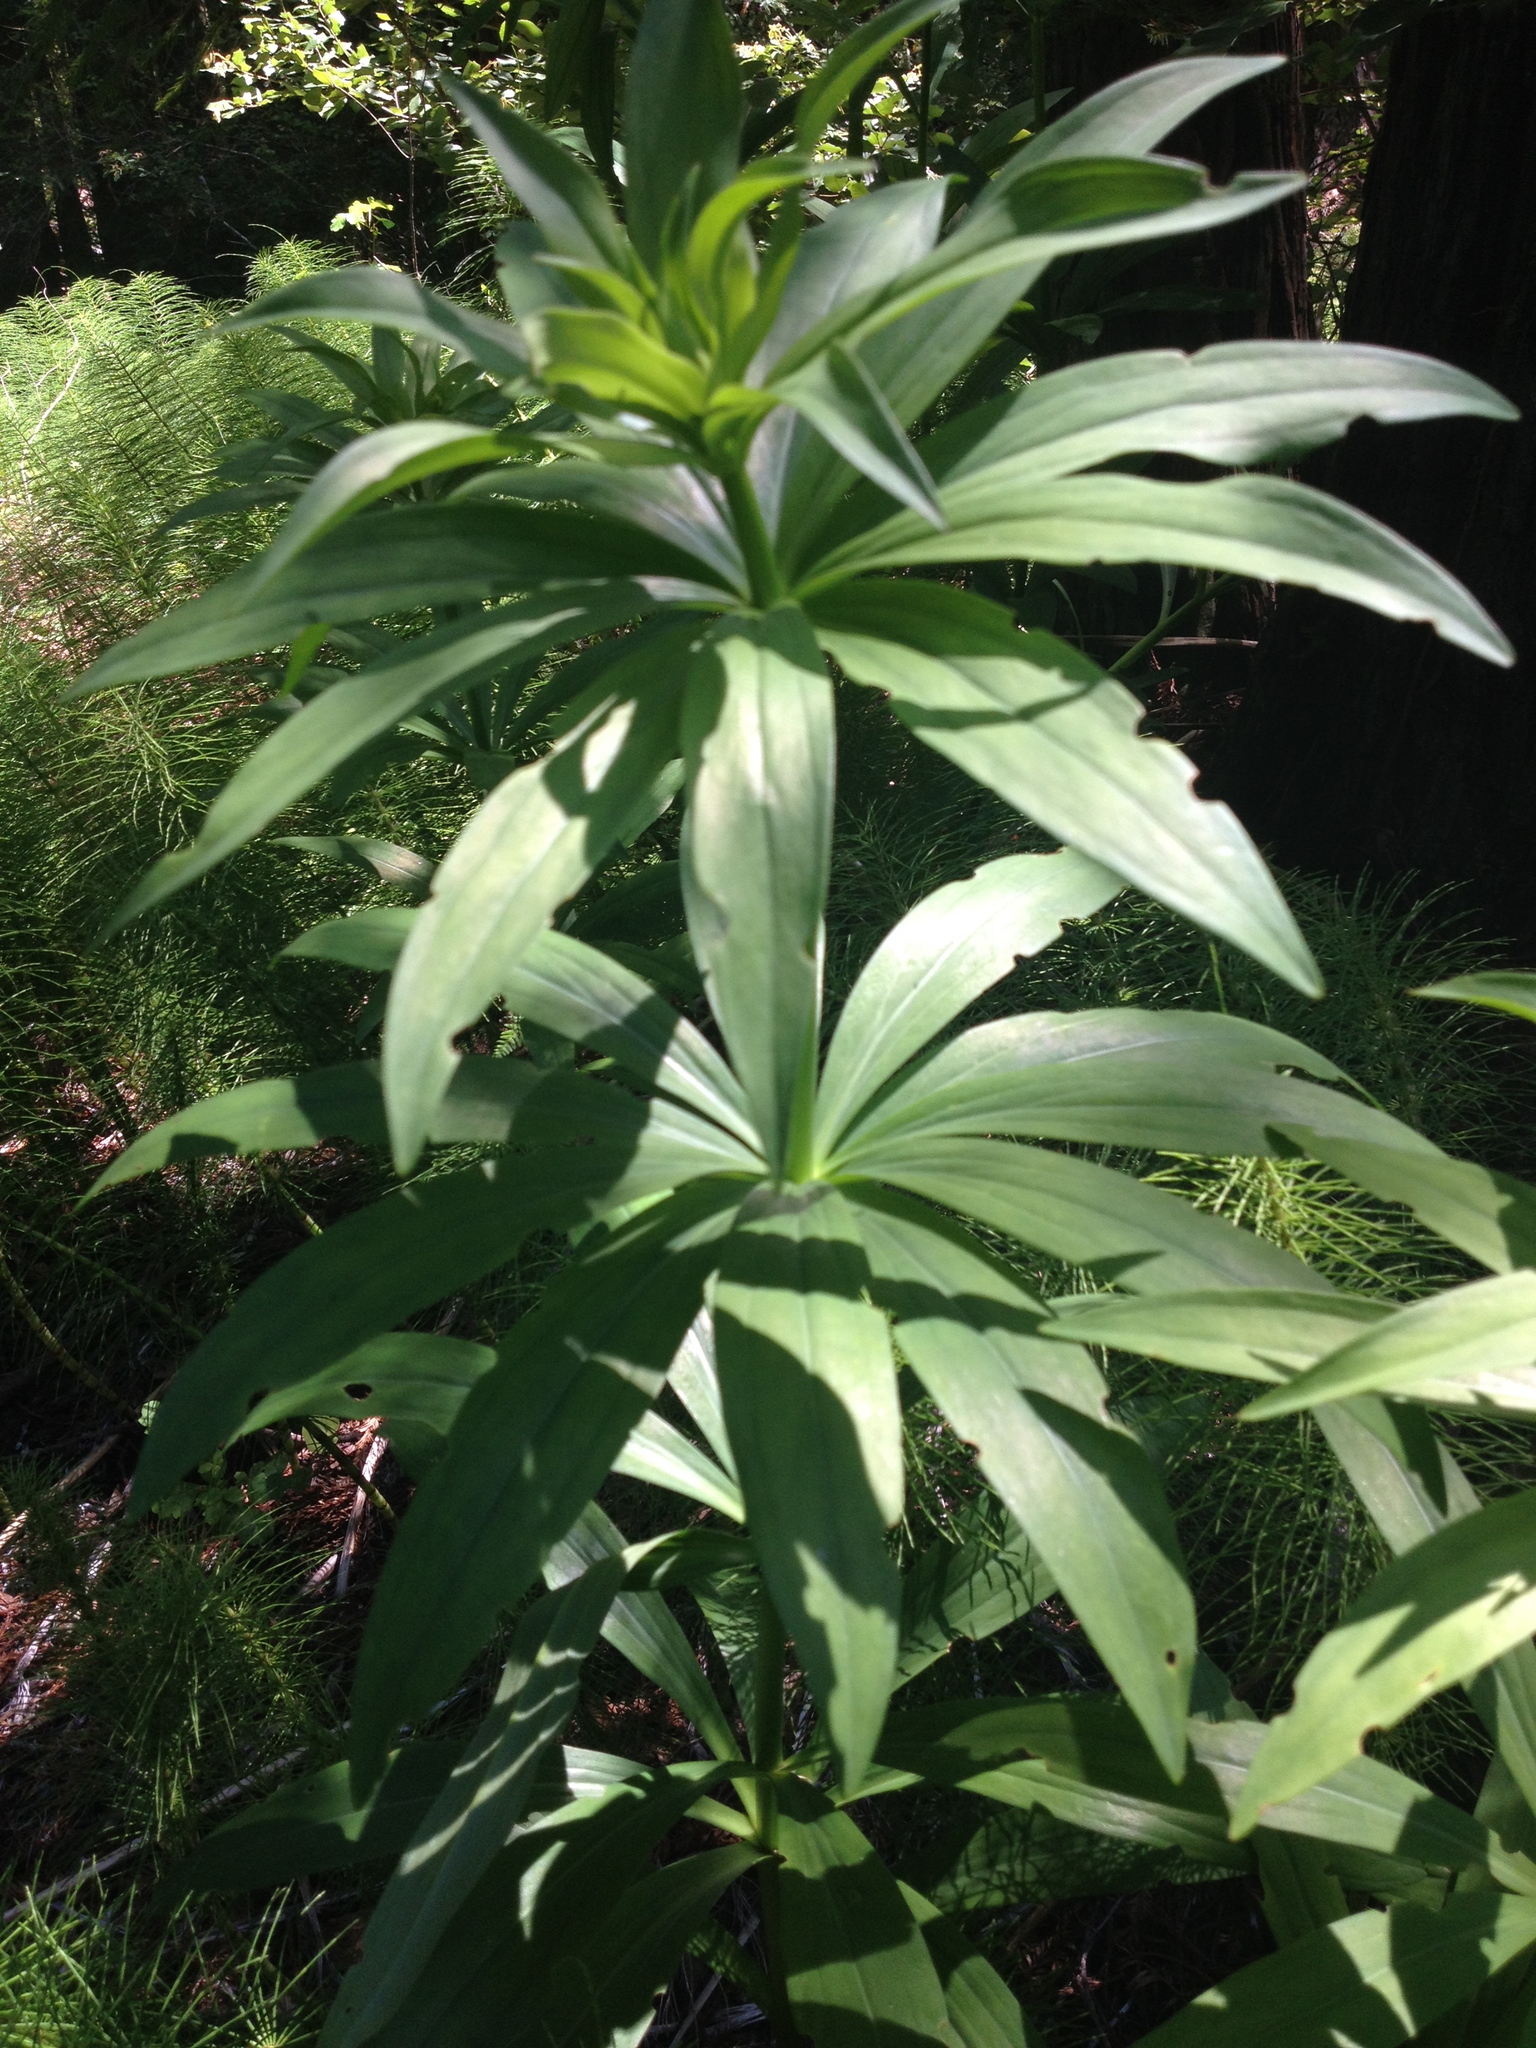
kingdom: Plantae
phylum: Tracheophyta
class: Liliopsida
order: Liliales
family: Liliaceae
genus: Lilium
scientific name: Lilium pardalinum
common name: Panther lily
